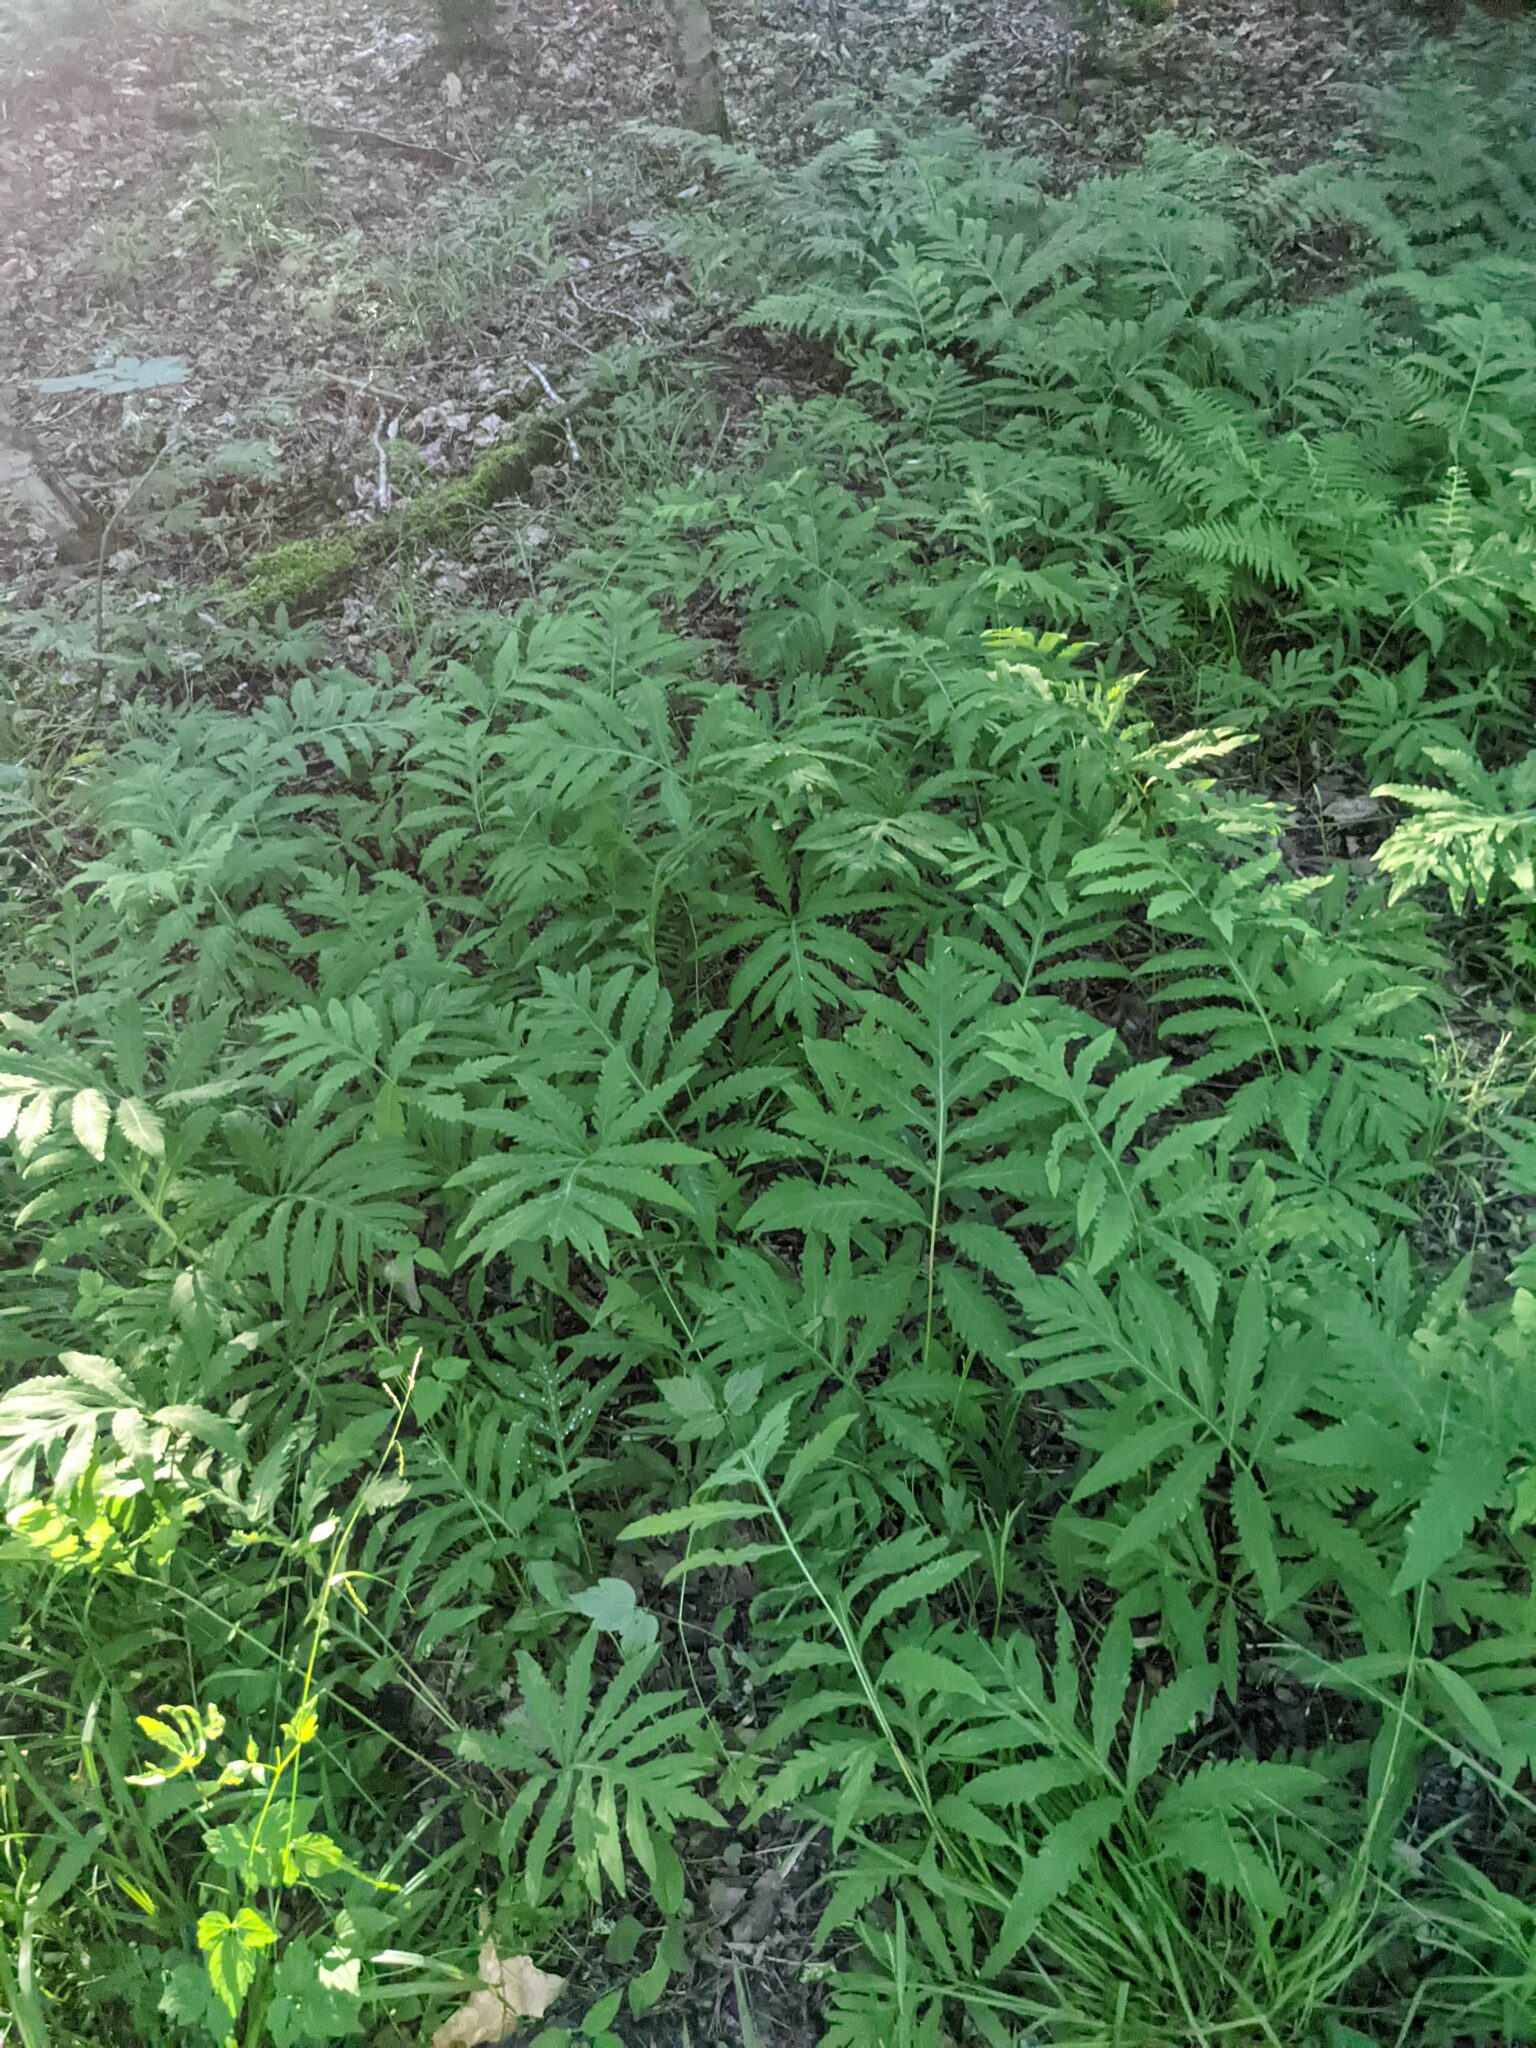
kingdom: Plantae
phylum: Tracheophyta
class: Polypodiopsida
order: Polypodiales
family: Onocleaceae
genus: Onoclea
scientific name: Onoclea sensibilis
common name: Sensitive fern
